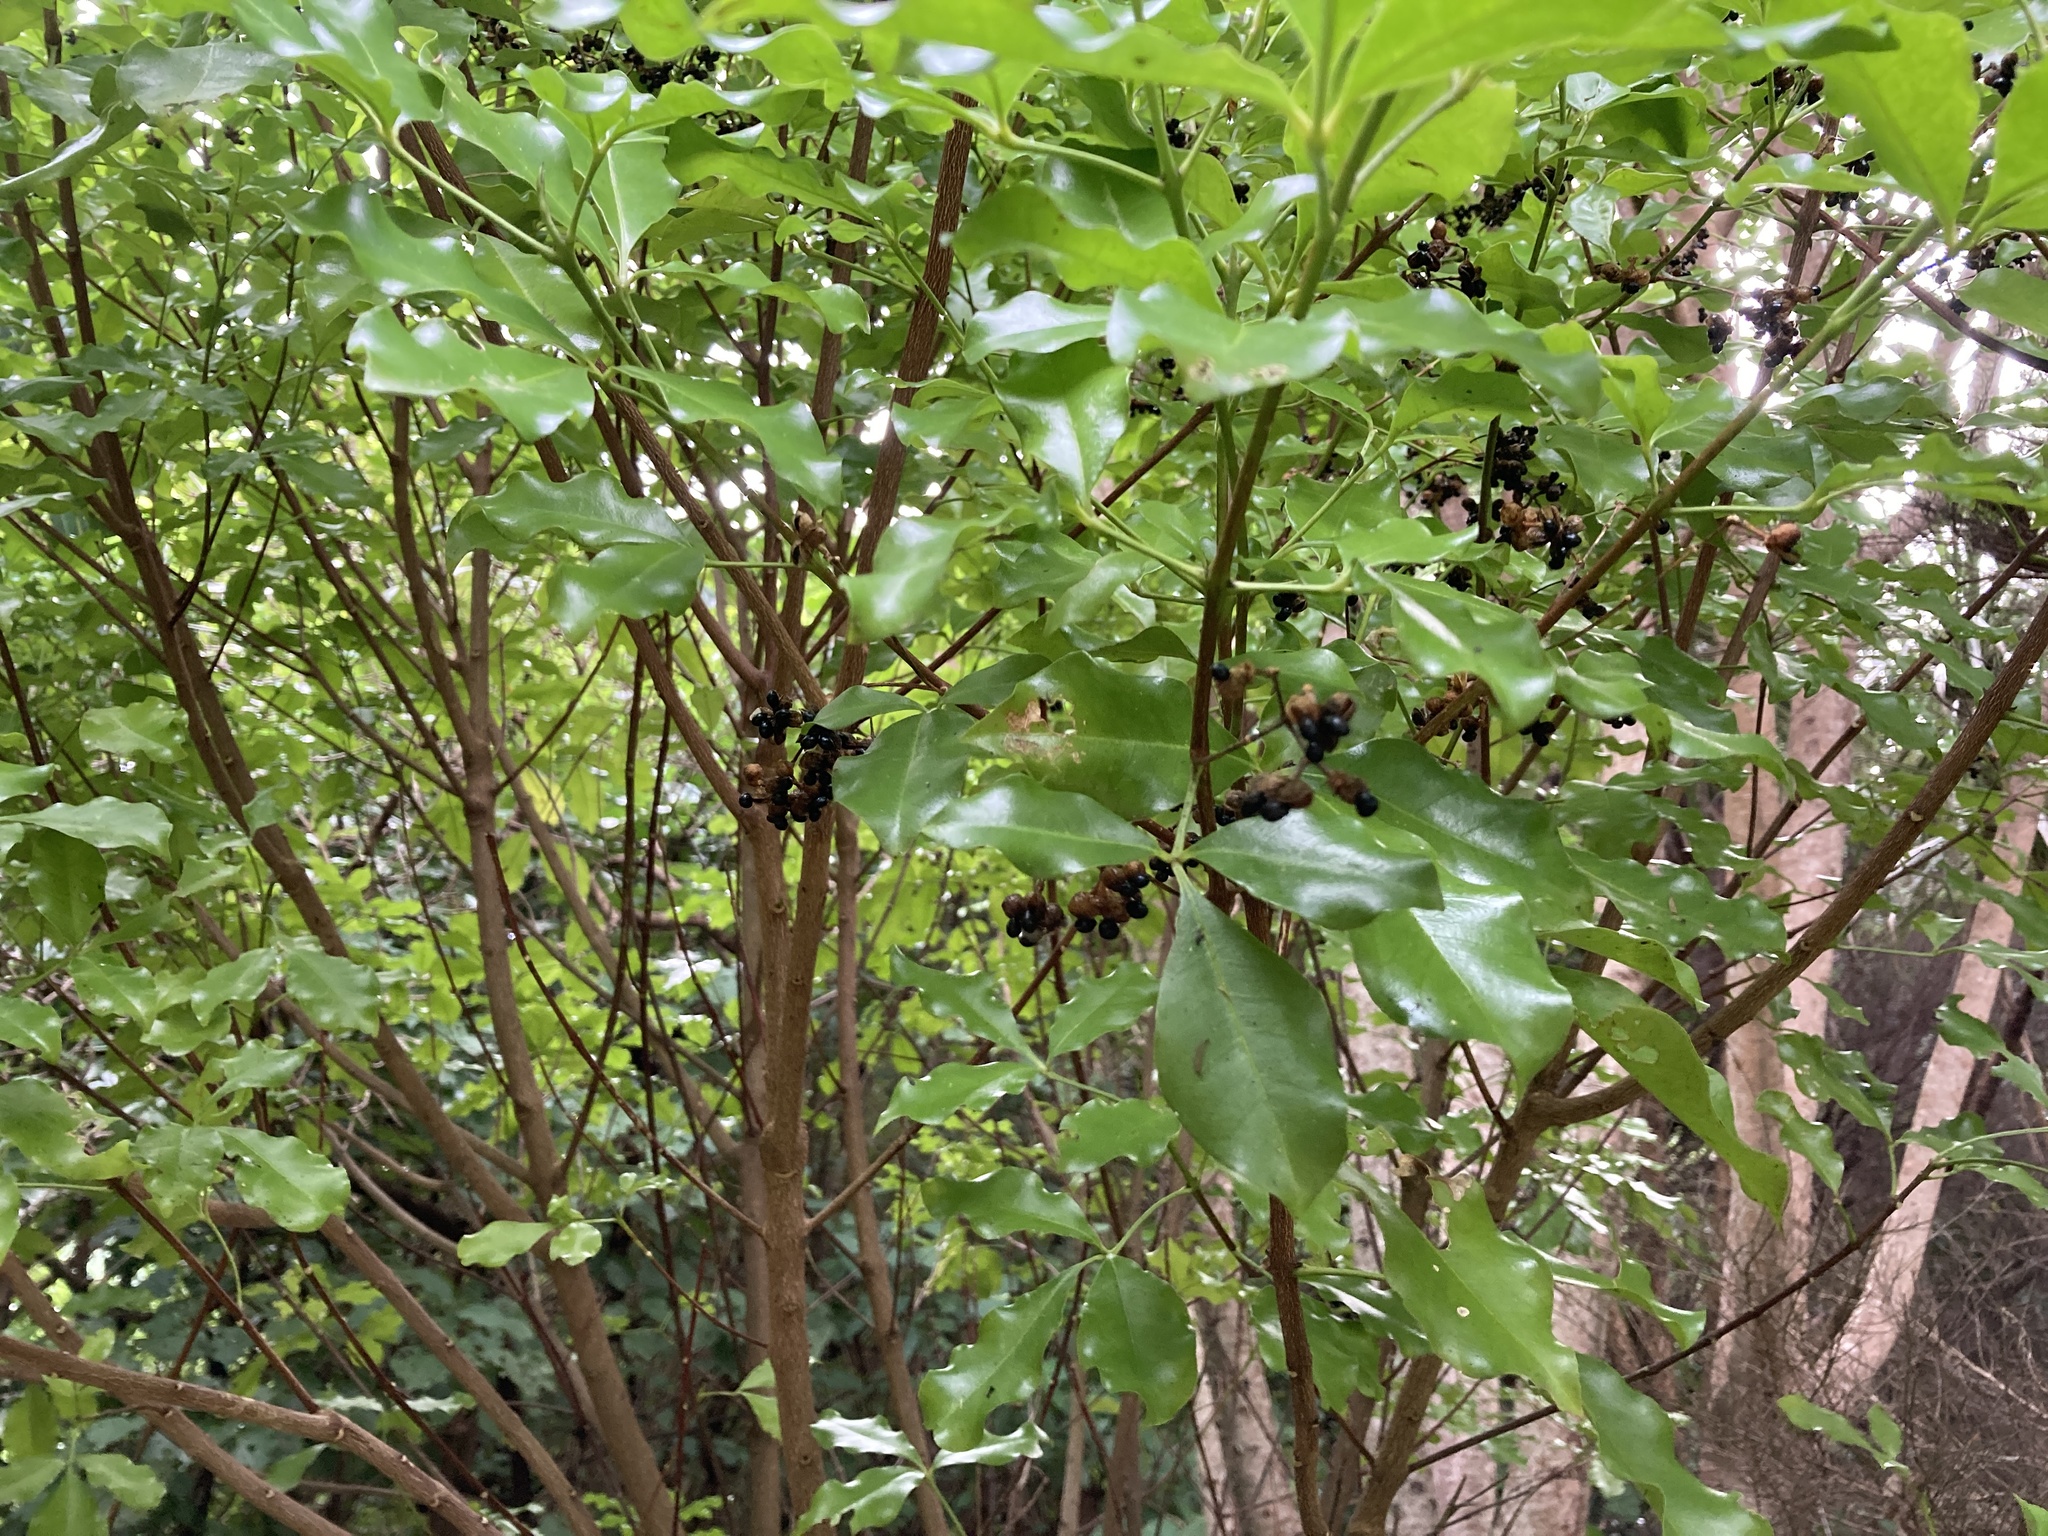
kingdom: Plantae
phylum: Tracheophyta
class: Magnoliopsida
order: Sapindales
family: Rutaceae
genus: Melicope
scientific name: Melicope ternata
